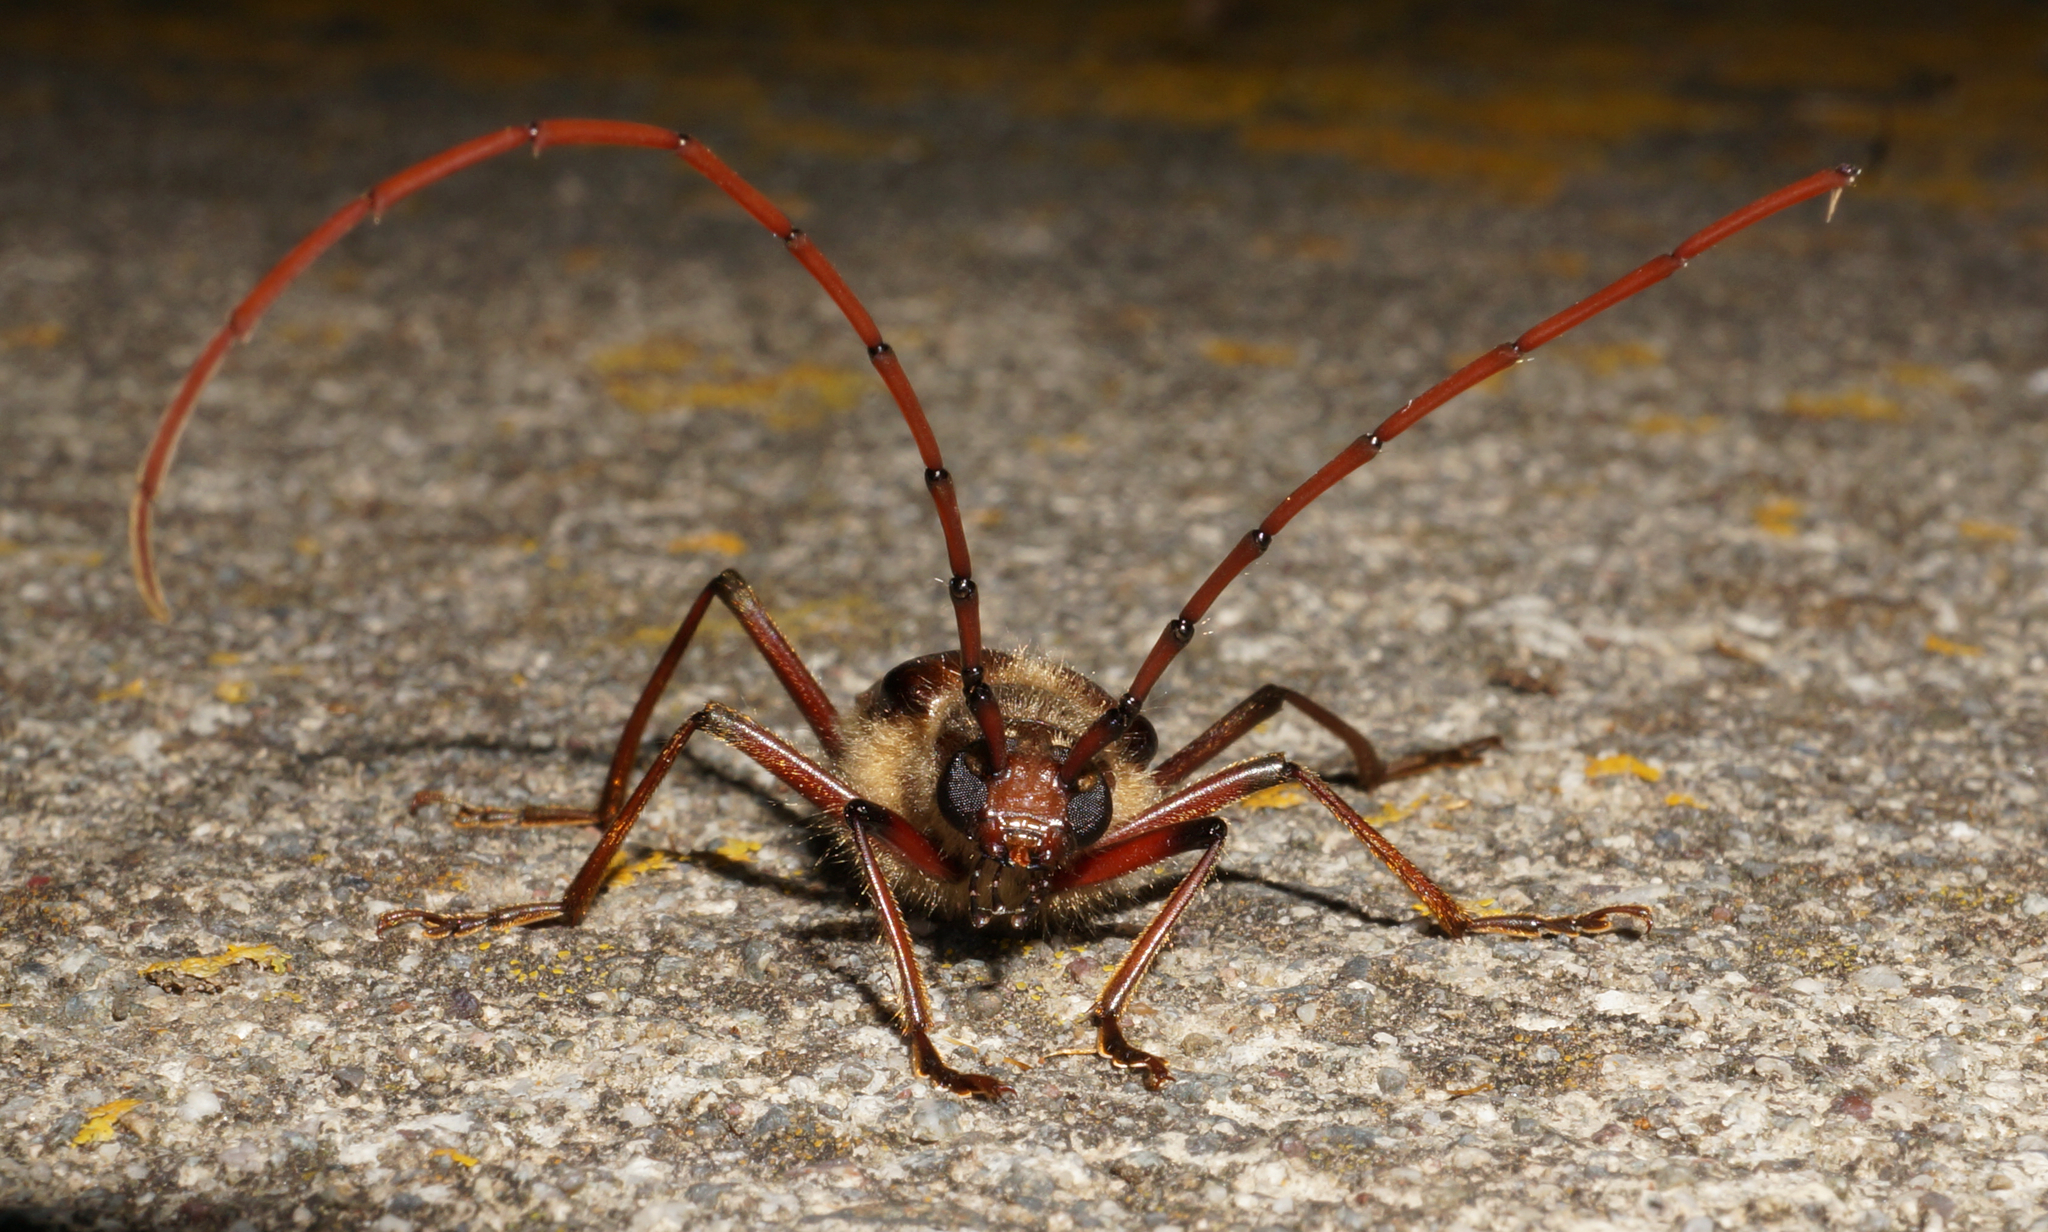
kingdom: Animalia
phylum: Arthropoda
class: Insecta
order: Coleoptera
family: Cerambycidae
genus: Ochrocydus
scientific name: Ochrocydus huttoni
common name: Kanuka longhorn
